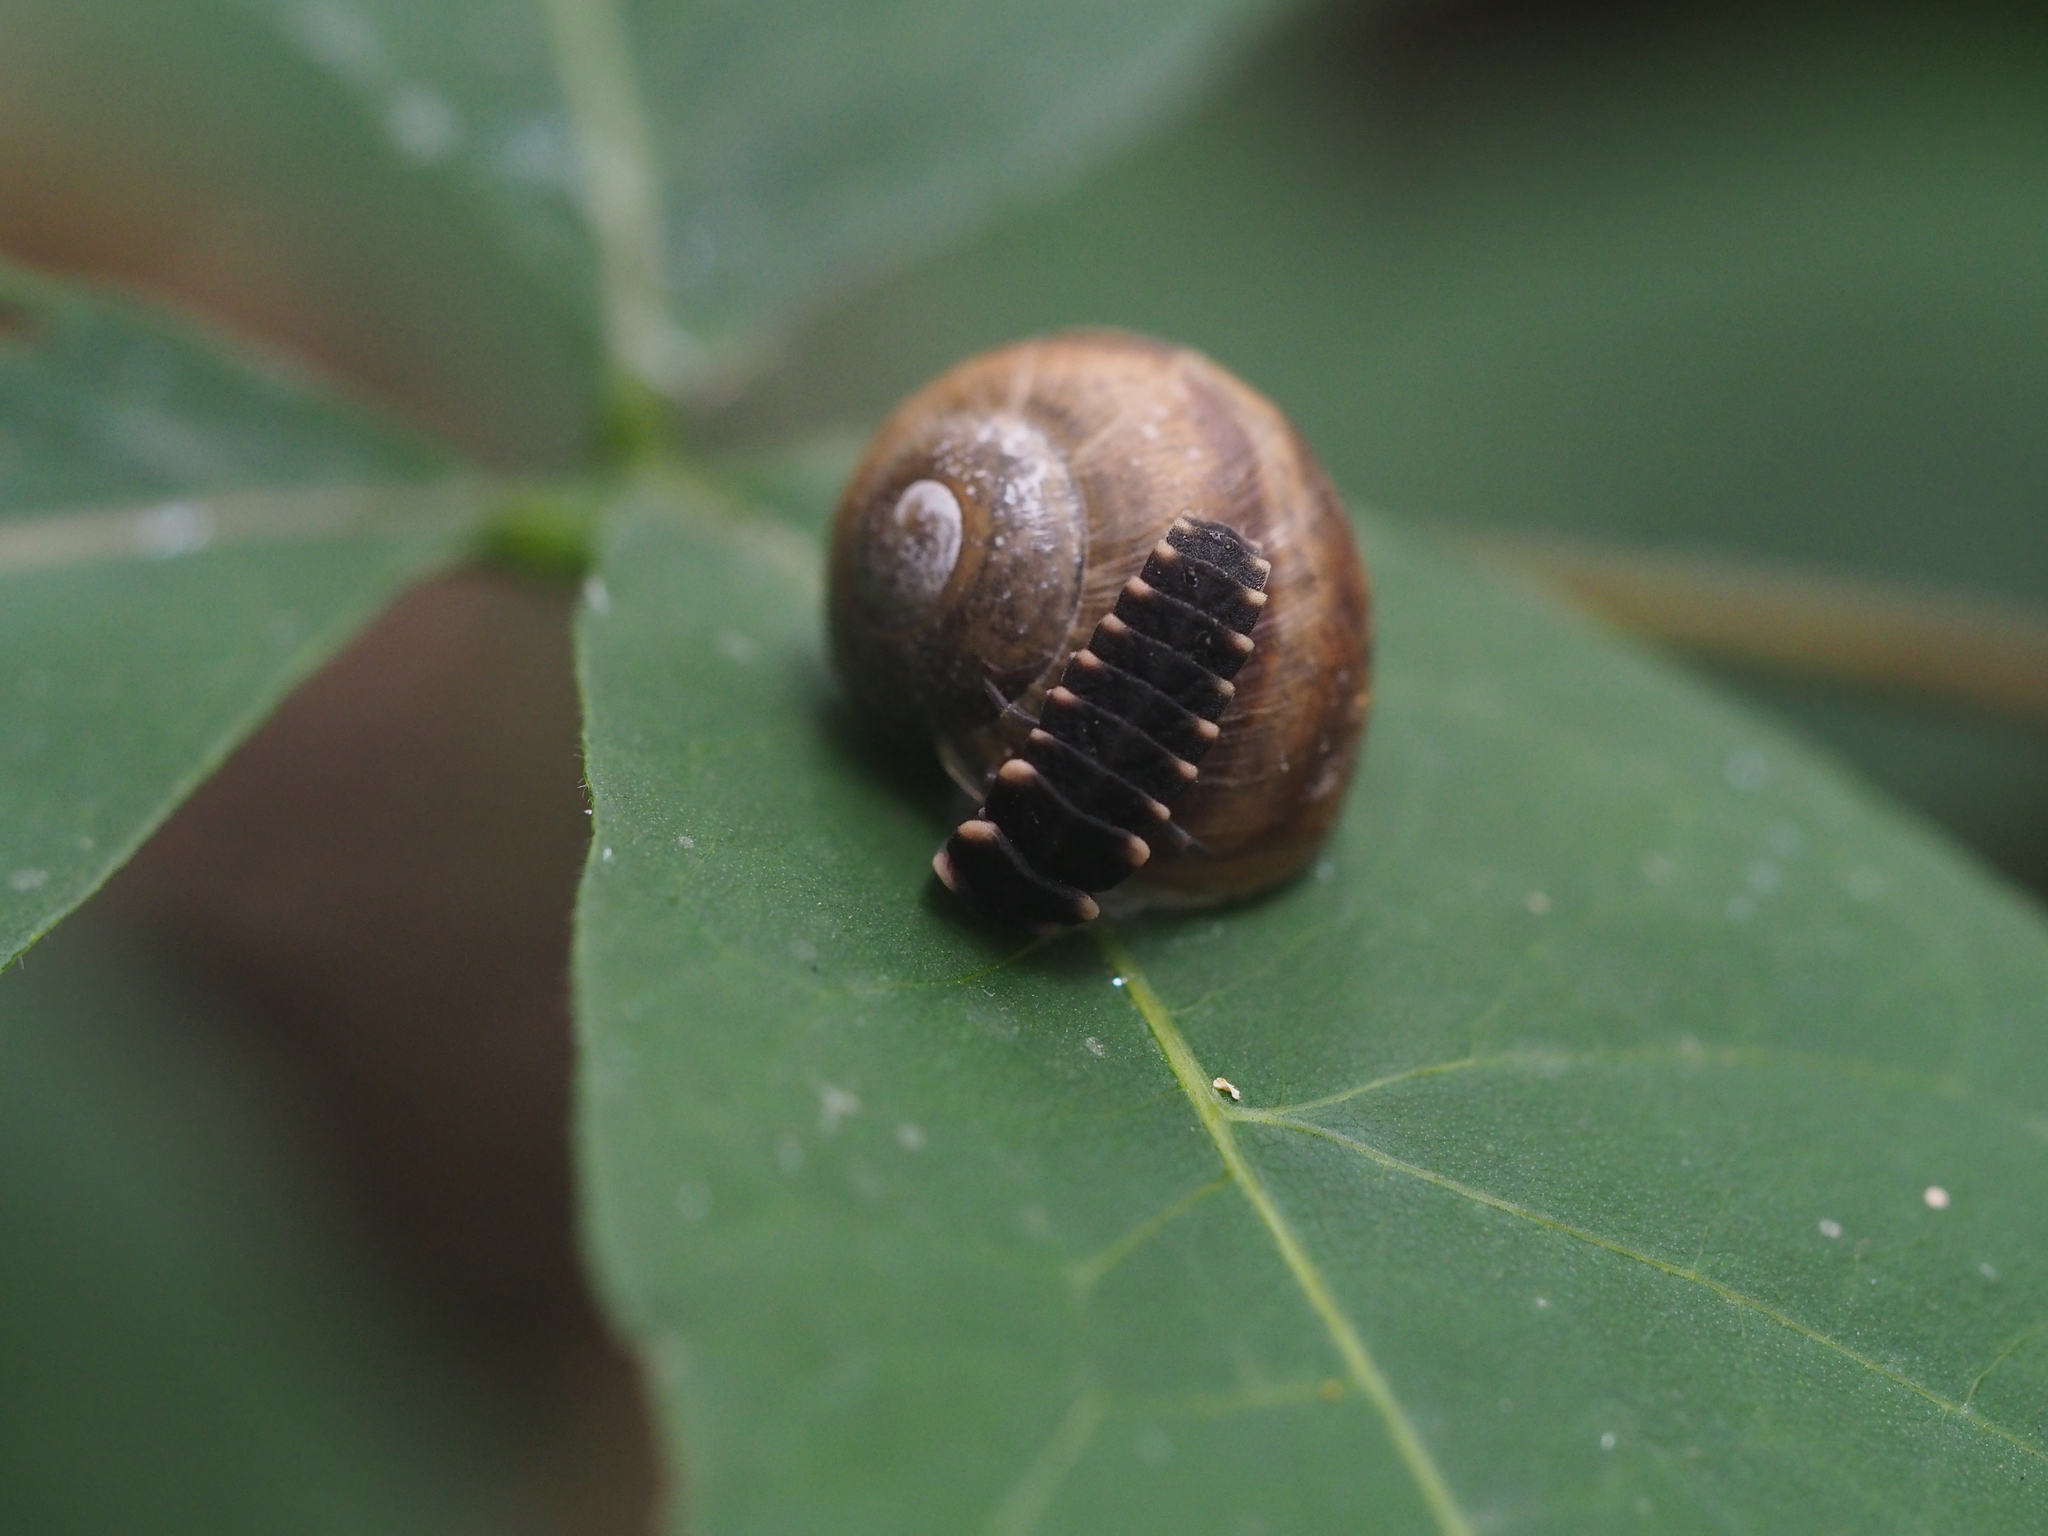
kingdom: Animalia
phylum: Arthropoda
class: Insecta
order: Coleoptera
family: Lampyridae
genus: Lampyris
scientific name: Lampyris noctiluca
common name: Glow-worm
